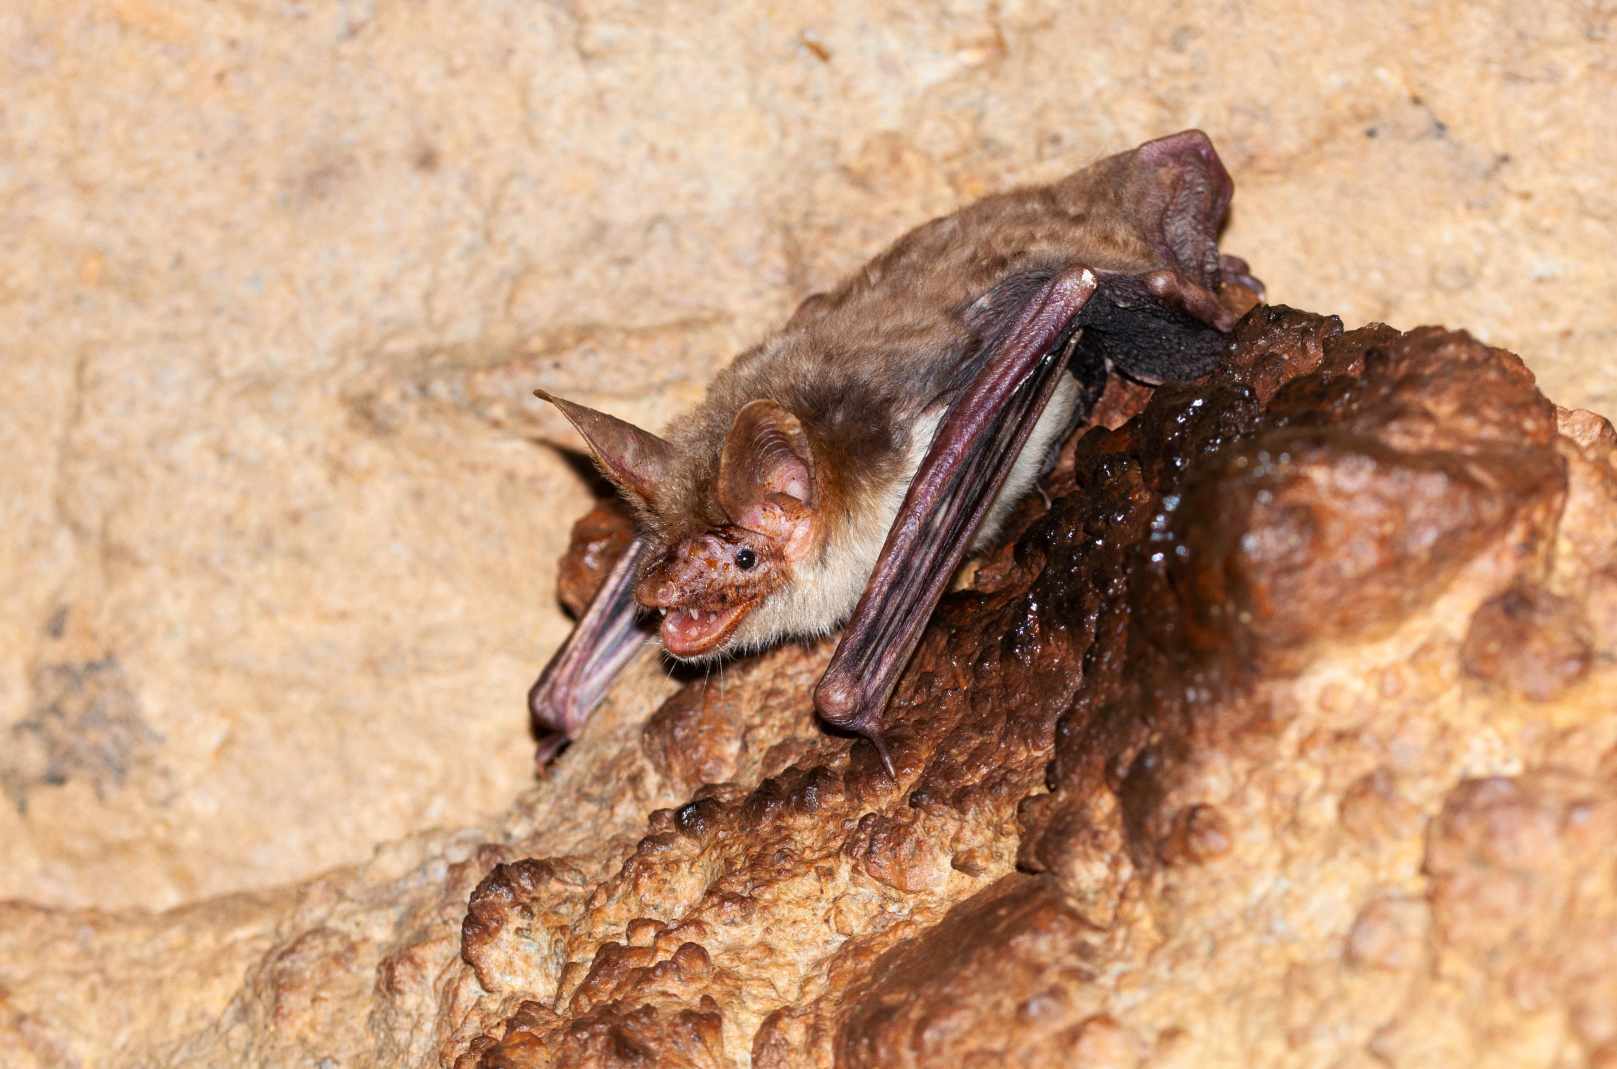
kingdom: Animalia
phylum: Chordata
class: Mammalia
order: Chiroptera
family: Vespertilionidae
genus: Myotis
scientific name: Myotis
